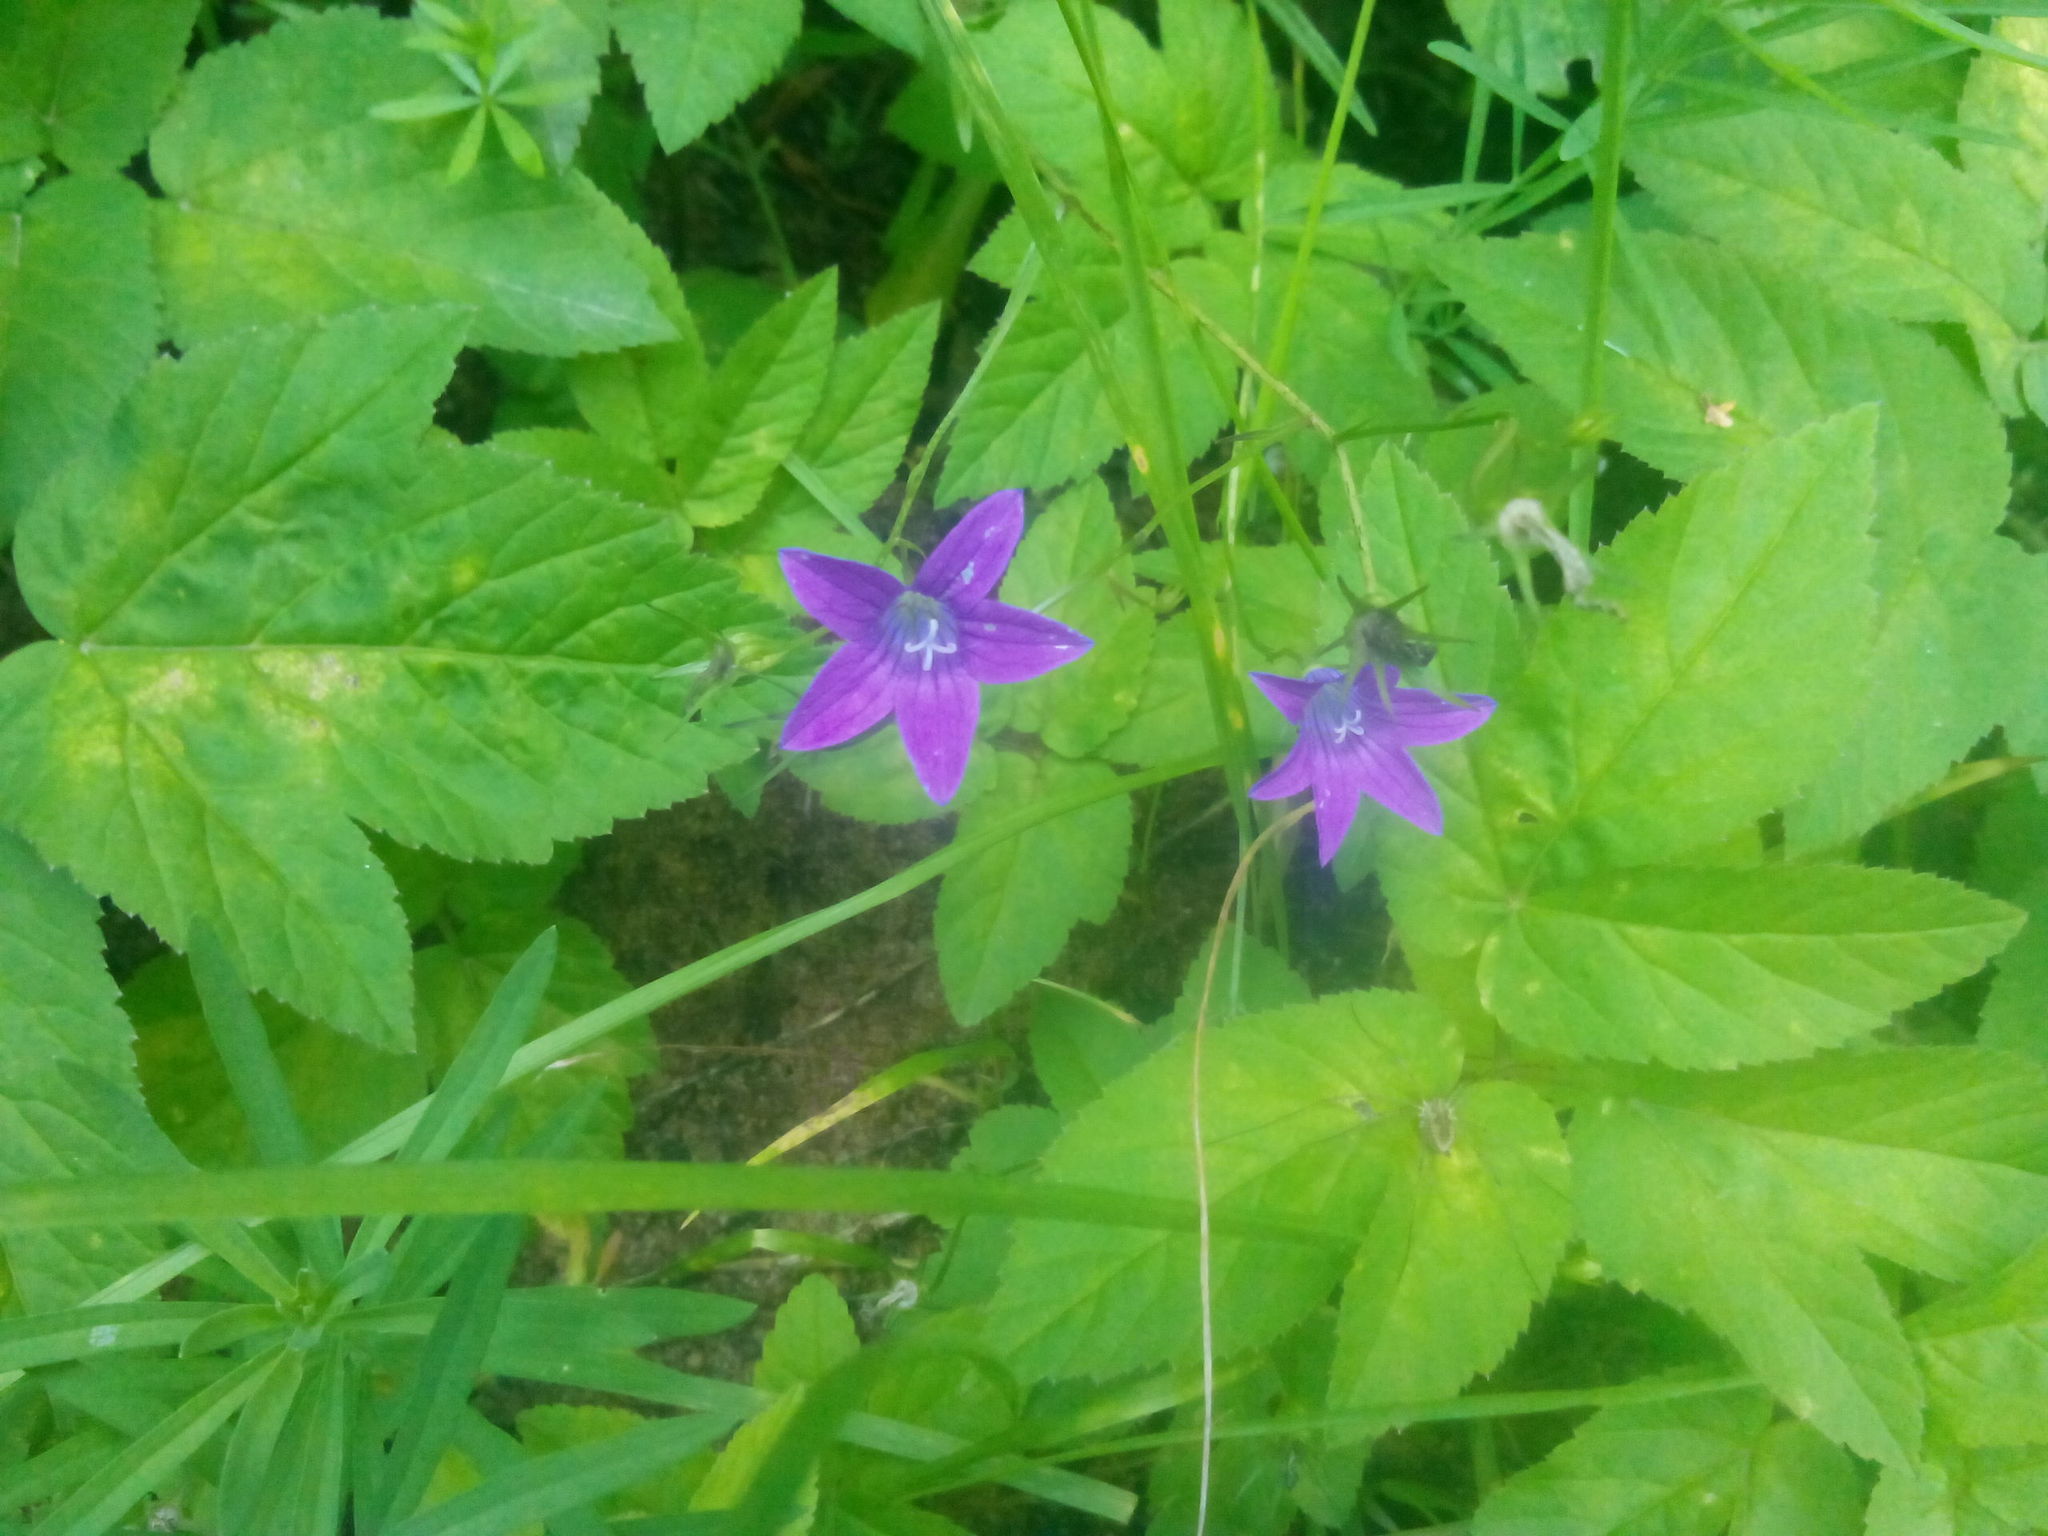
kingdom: Plantae
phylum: Tracheophyta
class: Magnoliopsida
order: Asterales
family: Campanulaceae
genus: Campanula
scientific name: Campanula patula
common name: Spreading bellflower
